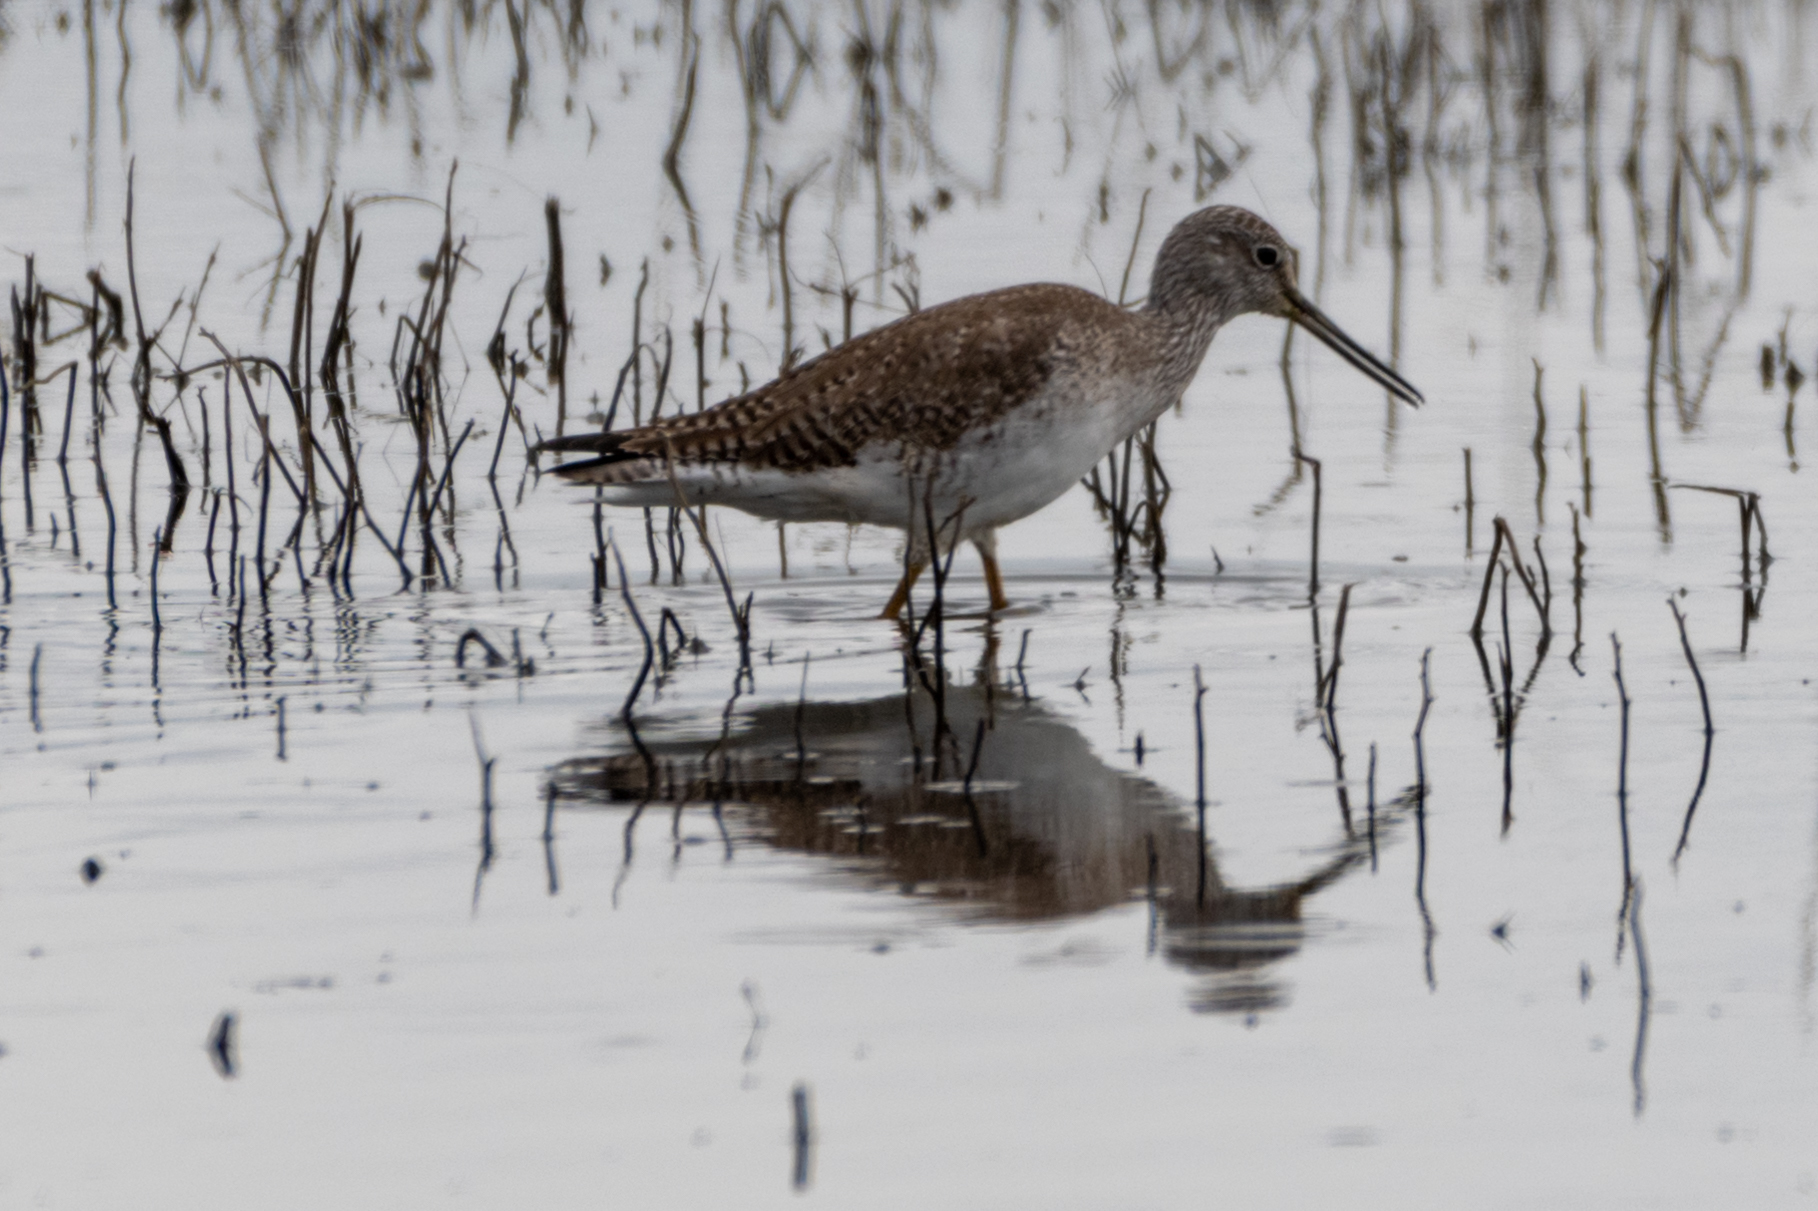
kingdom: Animalia
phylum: Chordata
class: Aves
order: Charadriiformes
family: Scolopacidae
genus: Tringa
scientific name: Tringa melanoleuca
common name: Greater yellowlegs
